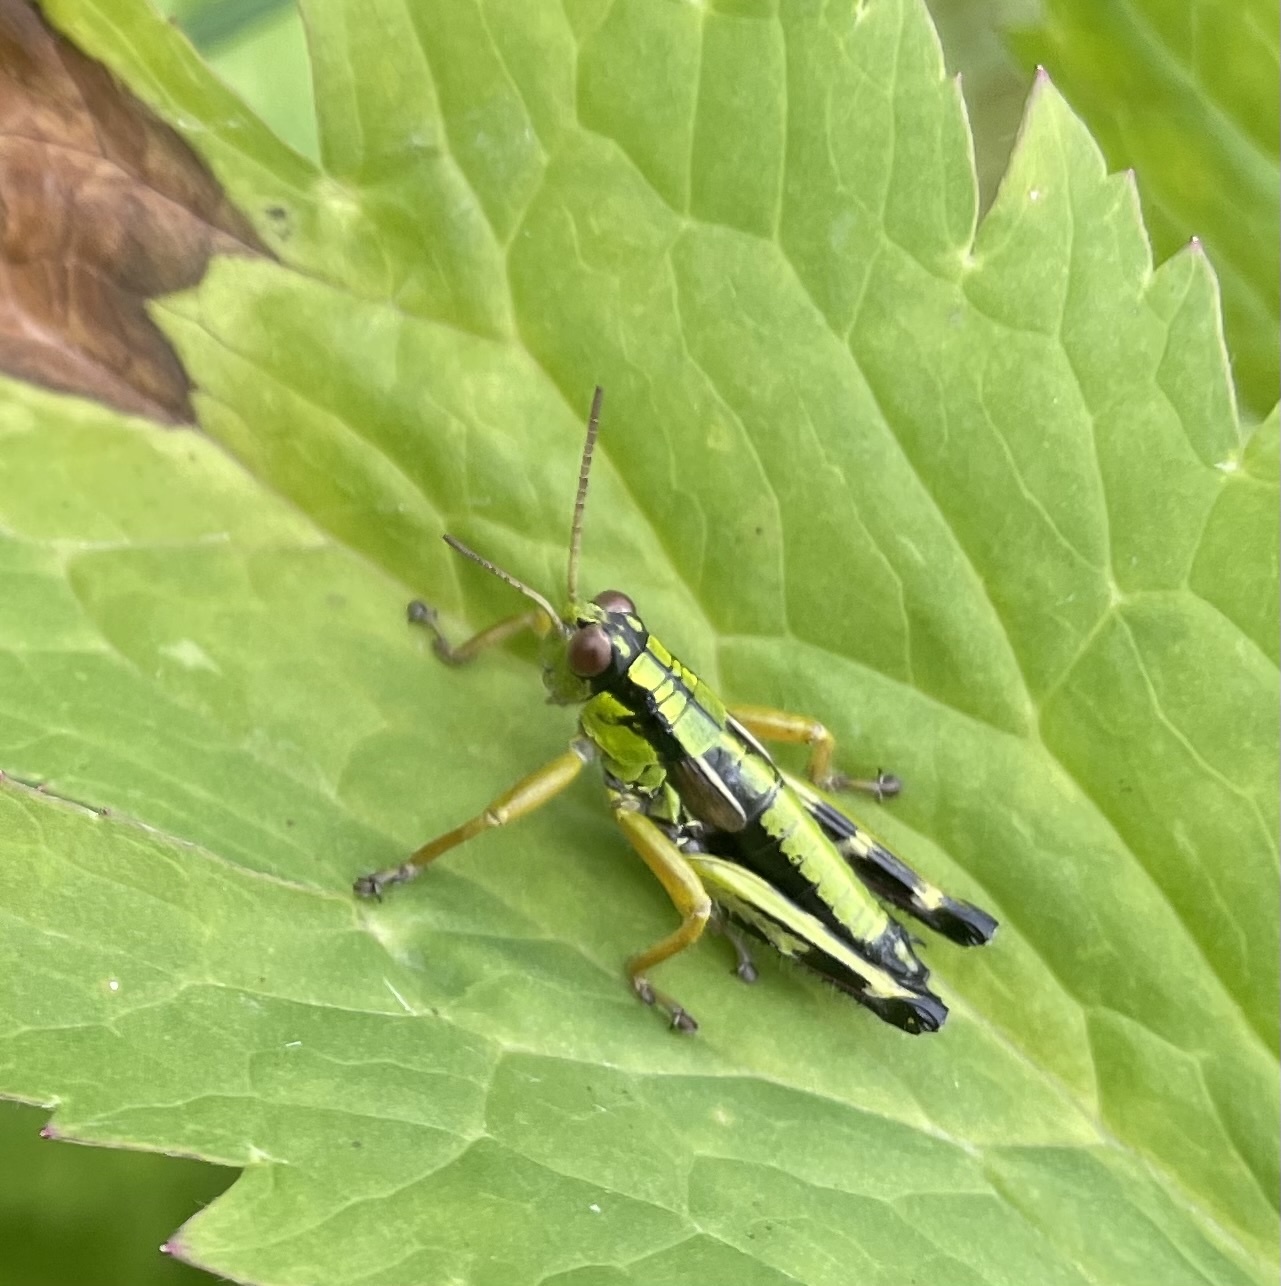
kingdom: Animalia
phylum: Arthropoda
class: Insecta
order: Orthoptera
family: Acrididae
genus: Miramella
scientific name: Miramella alpina
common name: Green mountain grasshopper
